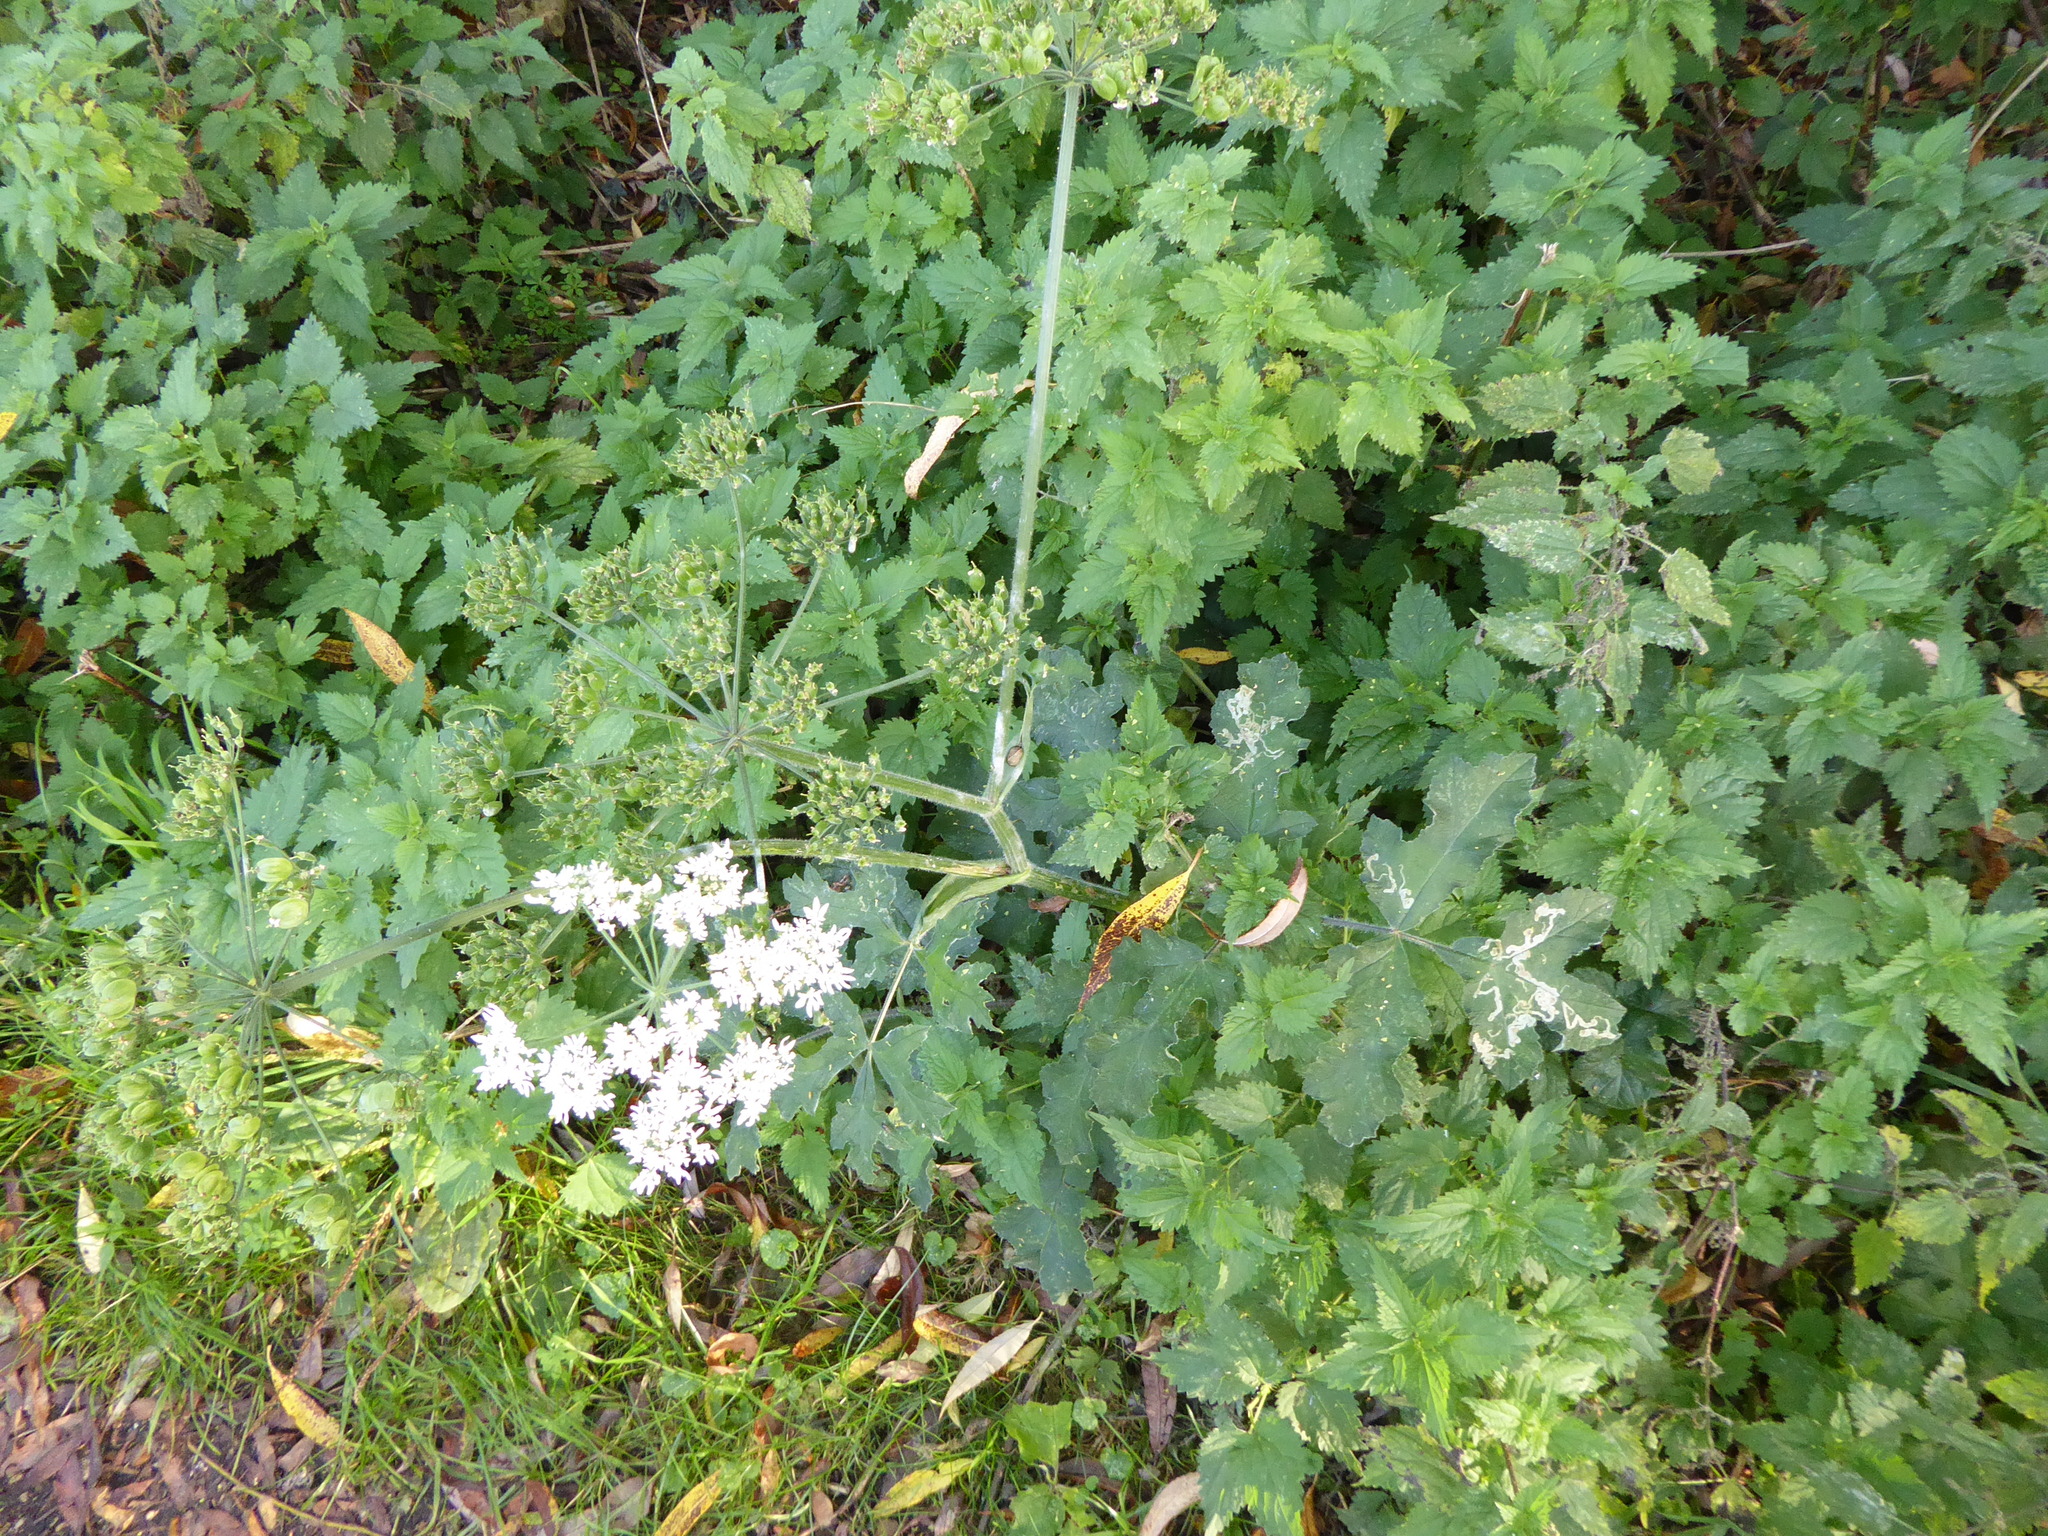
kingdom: Plantae
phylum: Tracheophyta
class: Magnoliopsida
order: Apiales
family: Apiaceae
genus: Heracleum
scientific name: Heracleum sphondylium
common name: Hogweed
